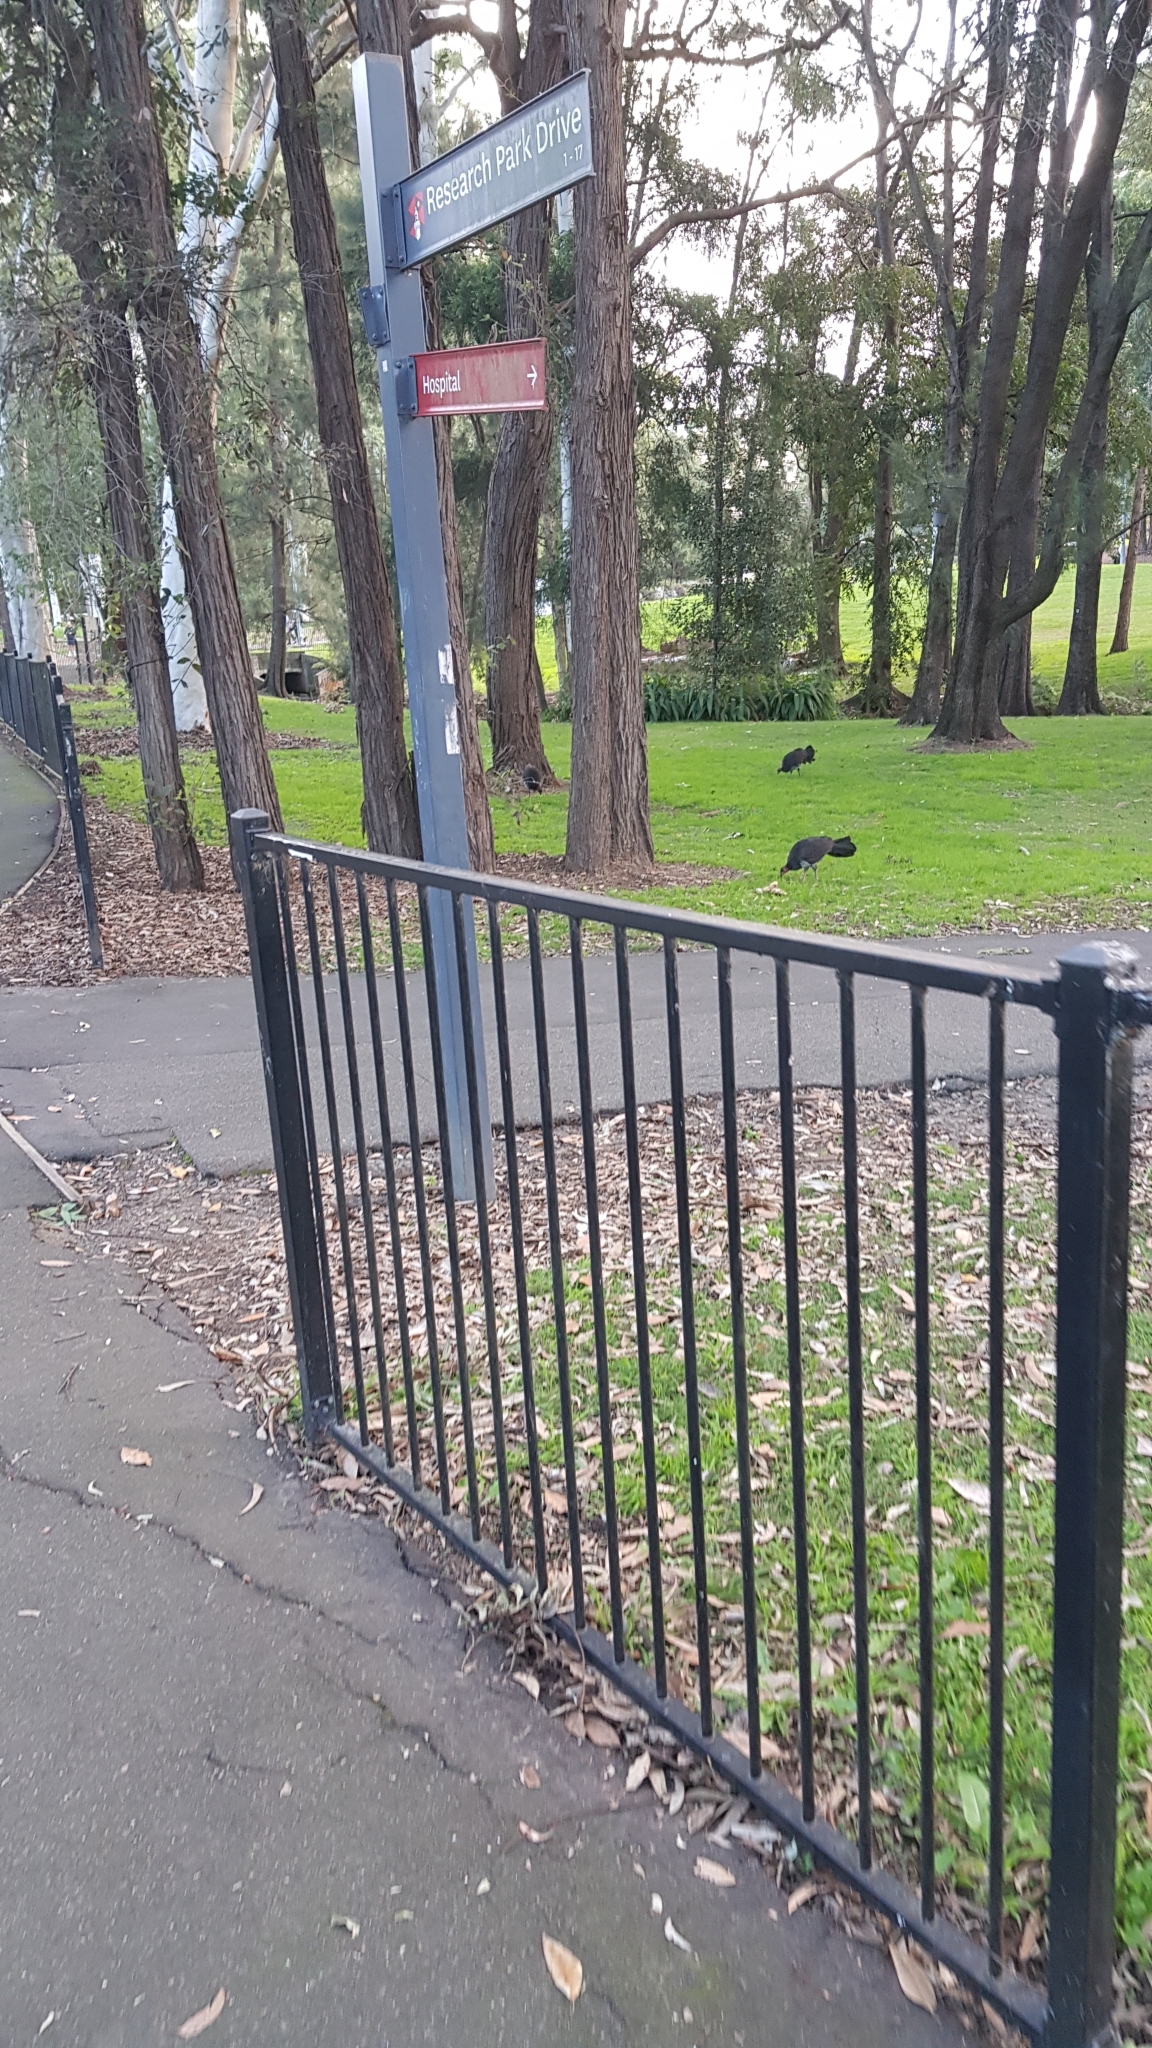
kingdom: Animalia
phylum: Chordata
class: Aves
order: Galliformes
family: Megapodiidae
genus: Alectura
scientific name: Alectura lathami
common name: Australian brushturkey
